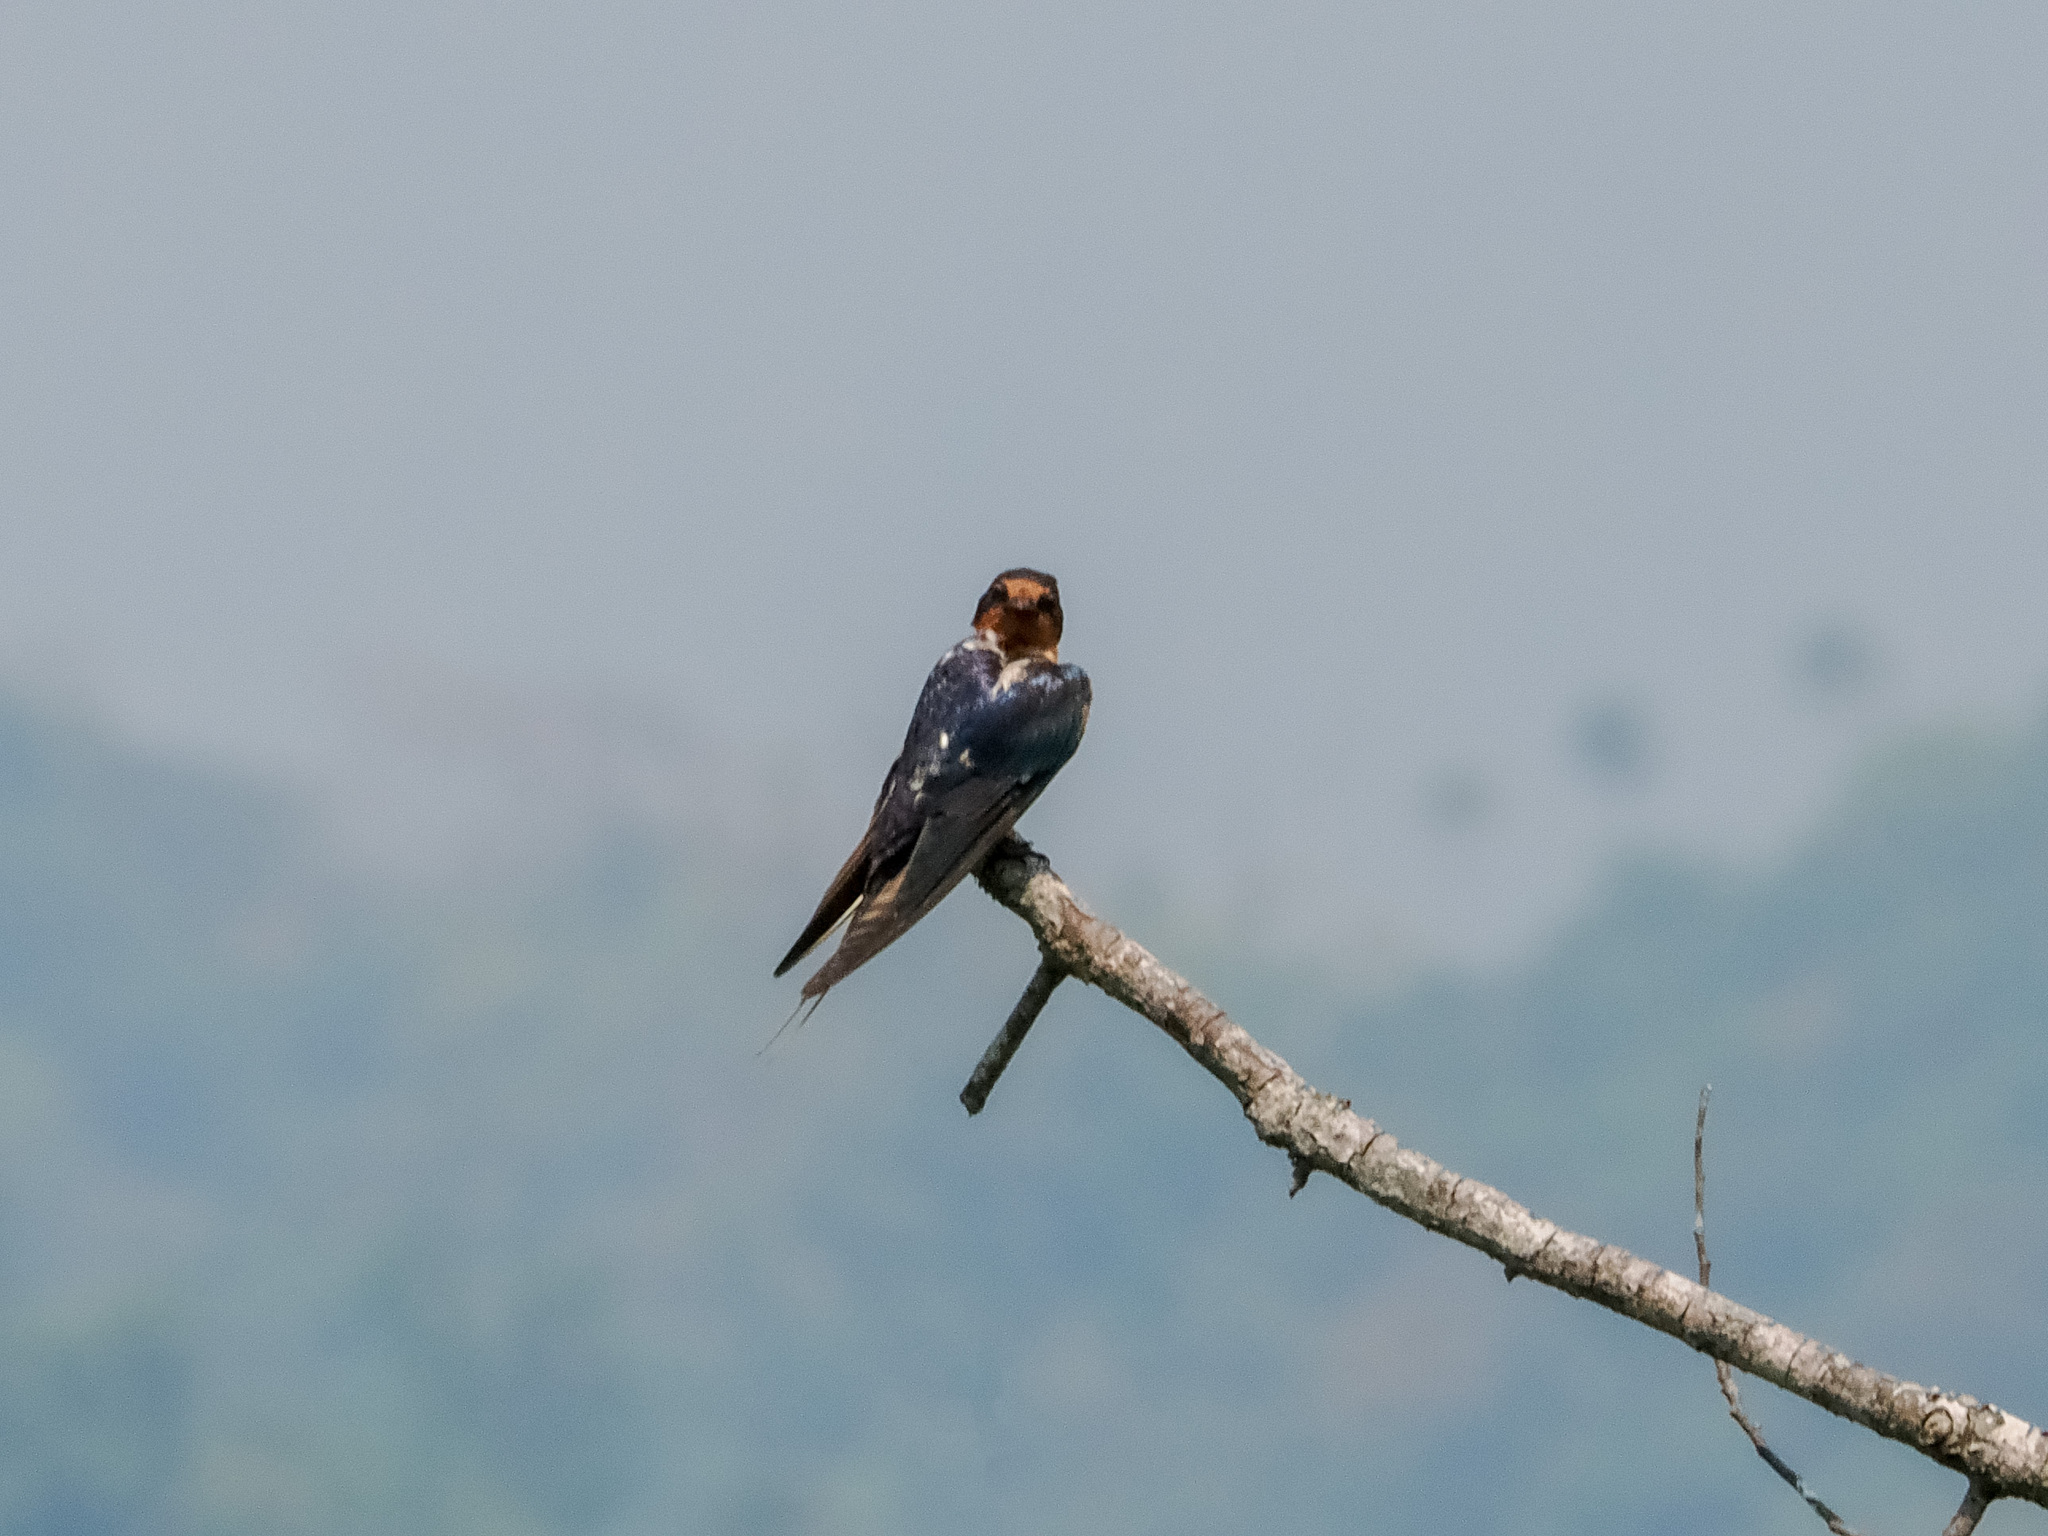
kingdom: Animalia
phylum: Chordata
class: Aves
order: Passeriformes
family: Hirundinidae
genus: Hirundo
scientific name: Hirundo rustica
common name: Barn swallow
